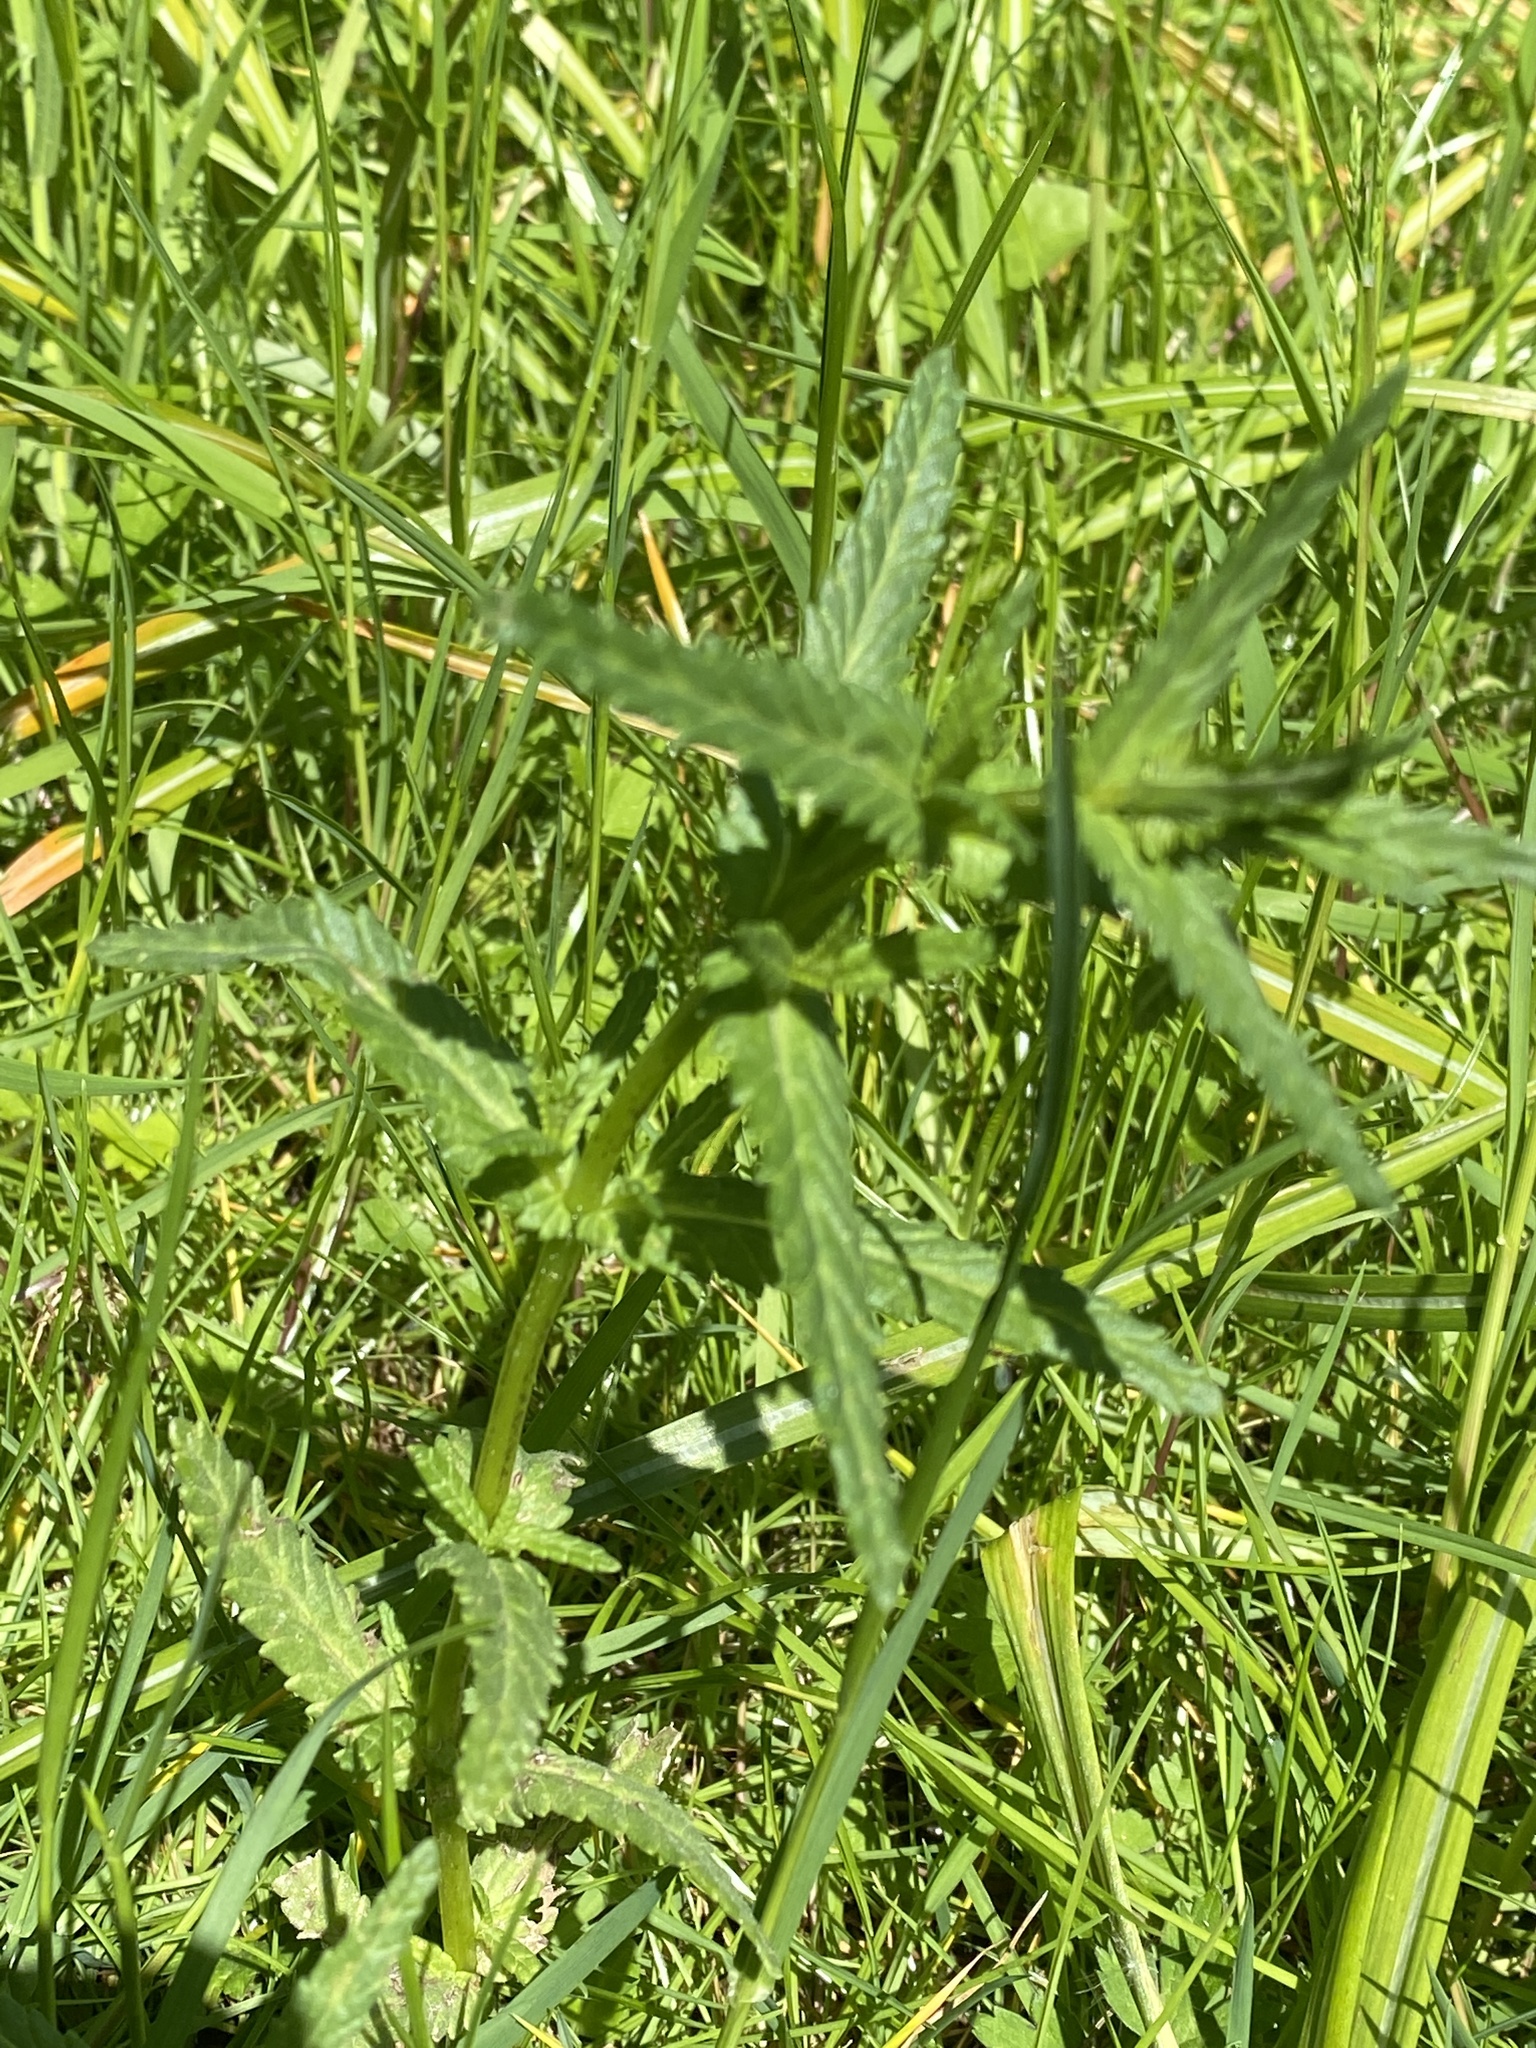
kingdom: Plantae
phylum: Tracheophyta
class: Magnoliopsida
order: Lamiales
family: Orobanchaceae
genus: Rhinanthus
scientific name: Rhinanthus minor
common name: Yellow-rattle
